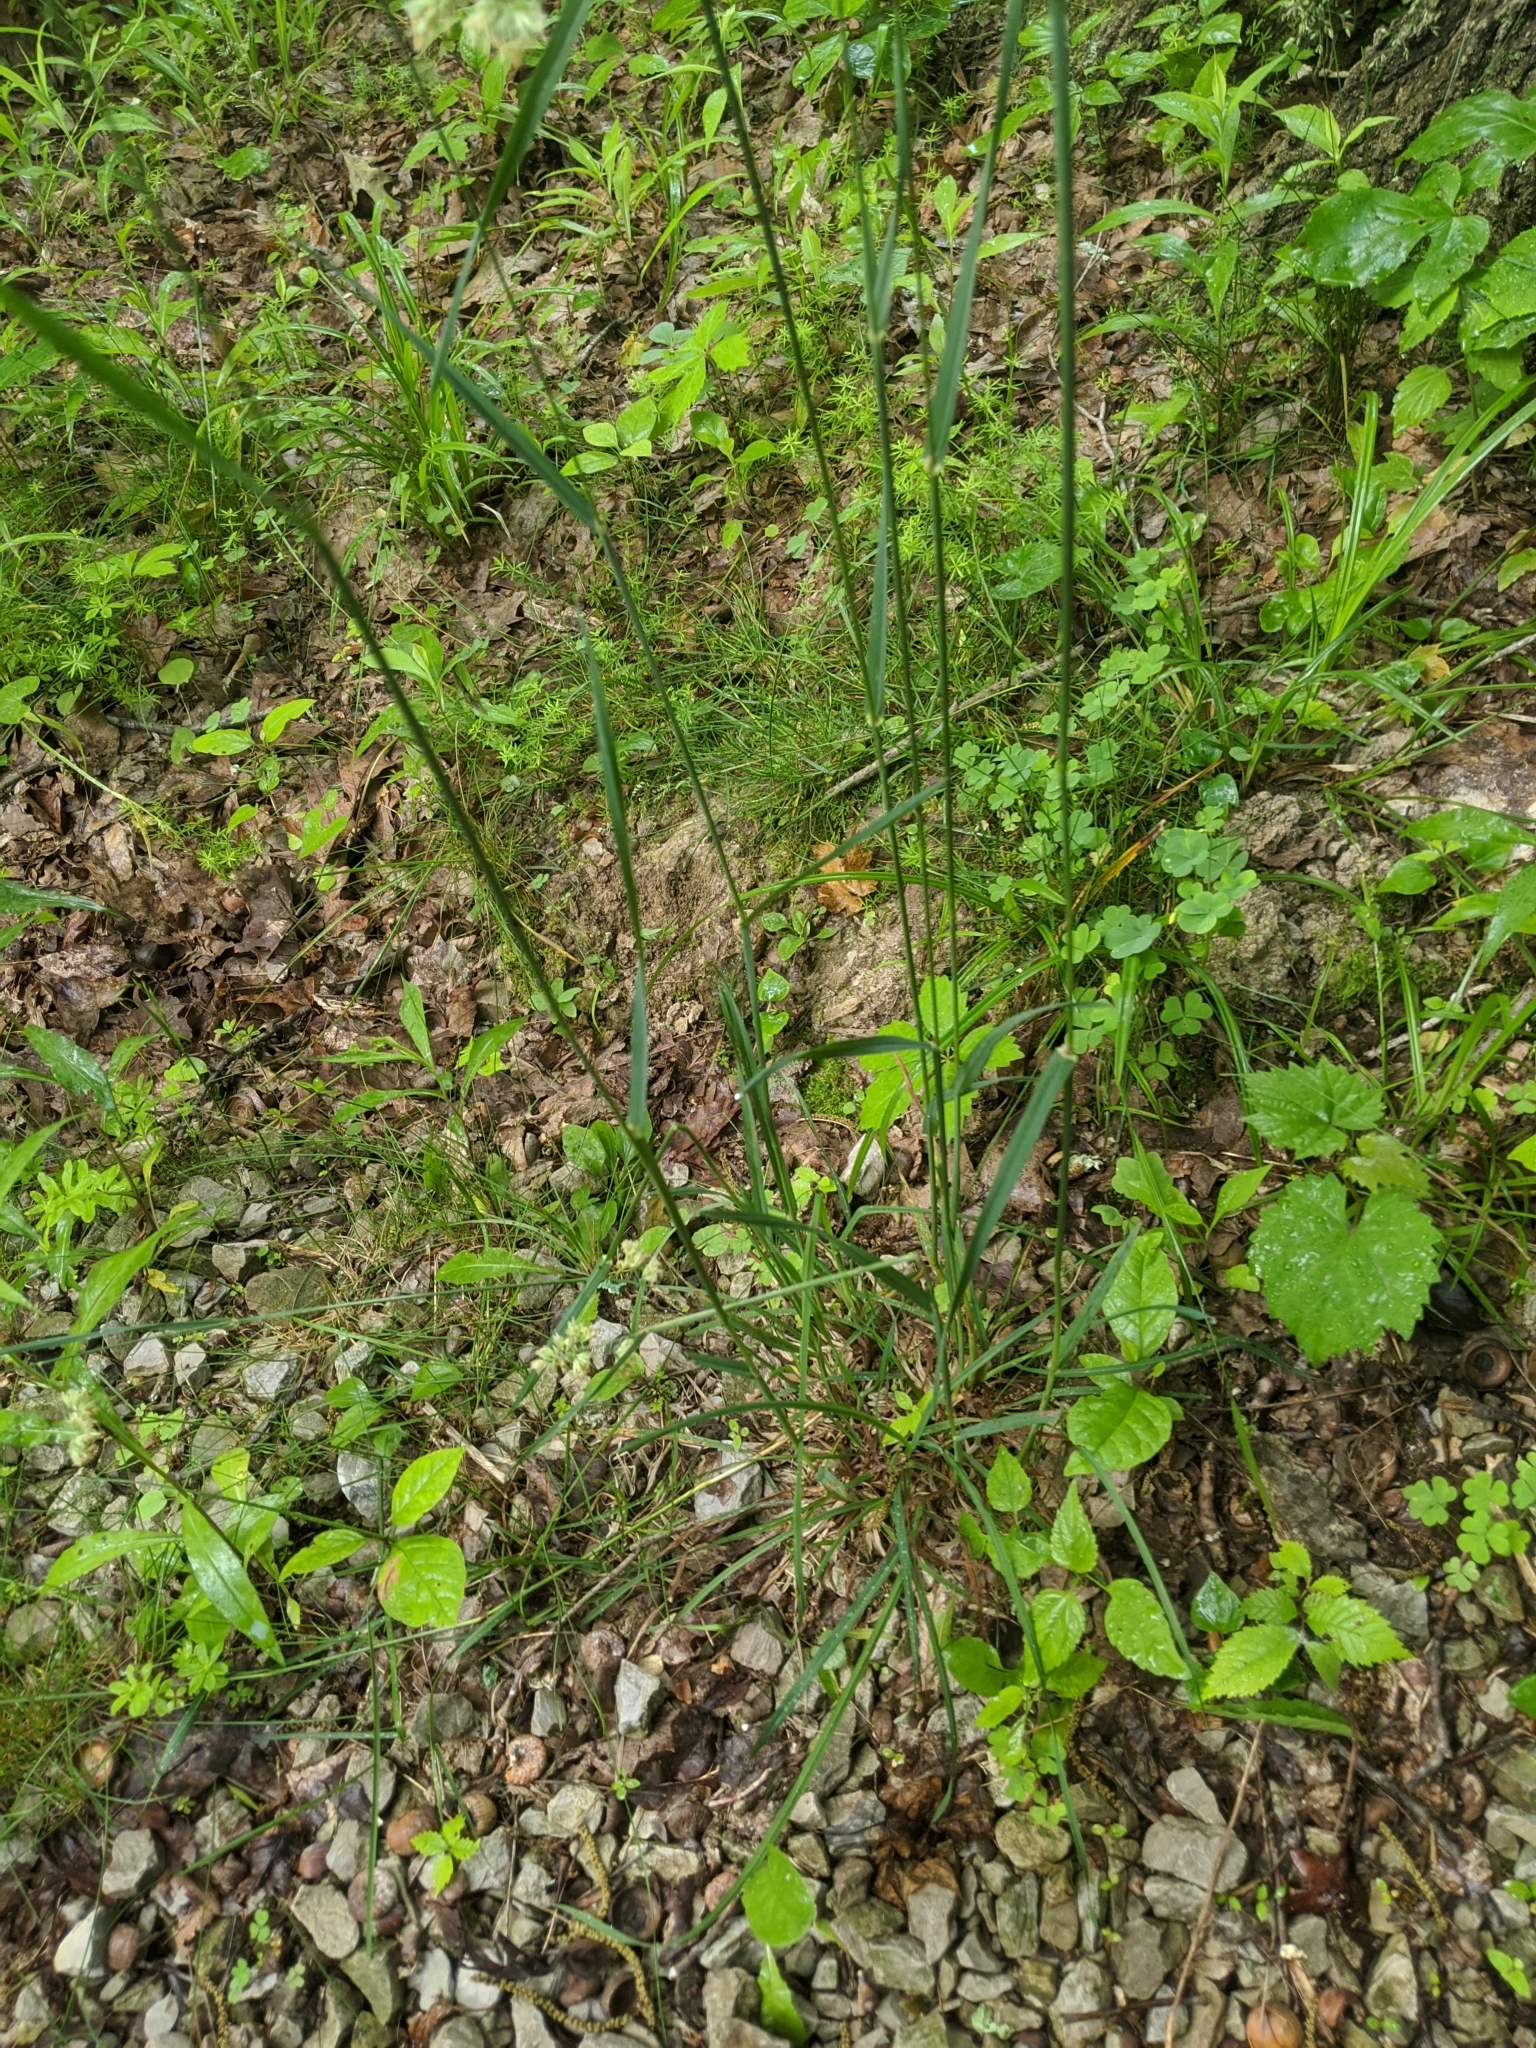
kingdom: Plantae
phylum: Tracheophyta
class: Liliopsida
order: Poales
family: Poaceae
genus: Dactylis
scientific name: Dactylis glomerata
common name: Orchardgrass
